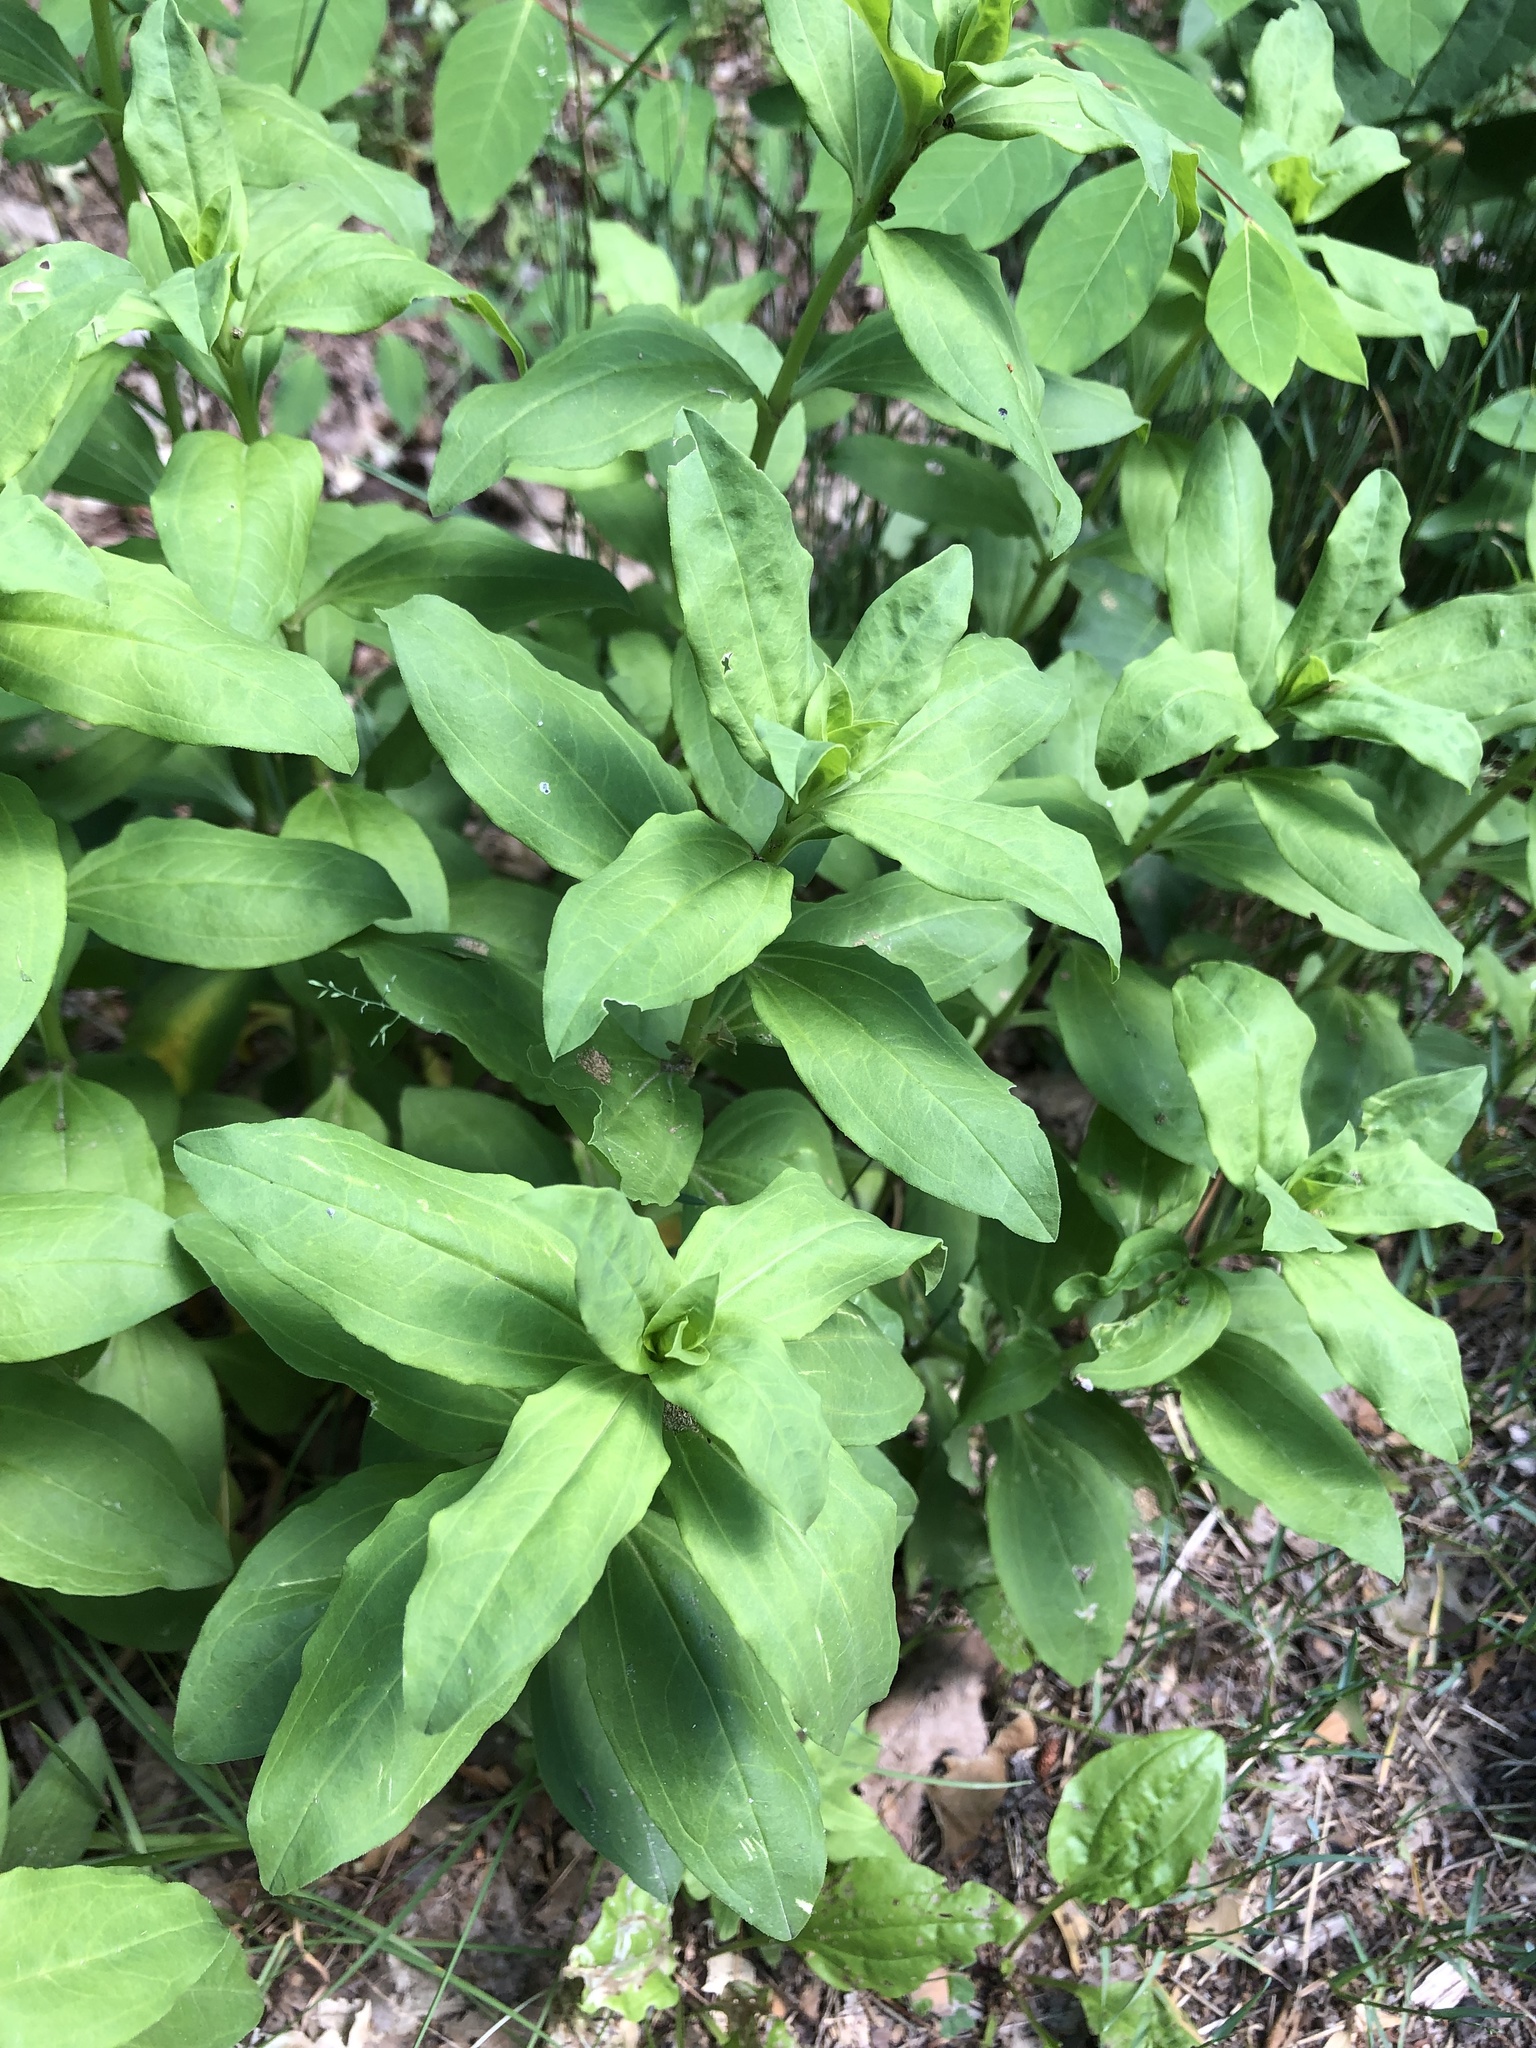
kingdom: Plantae
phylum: Tracheophyta
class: Magnoliopsida
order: Caryophyllales
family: Caryophyllaceae
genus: Saponaria
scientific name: Saponaria officinalis
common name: Soapwort
